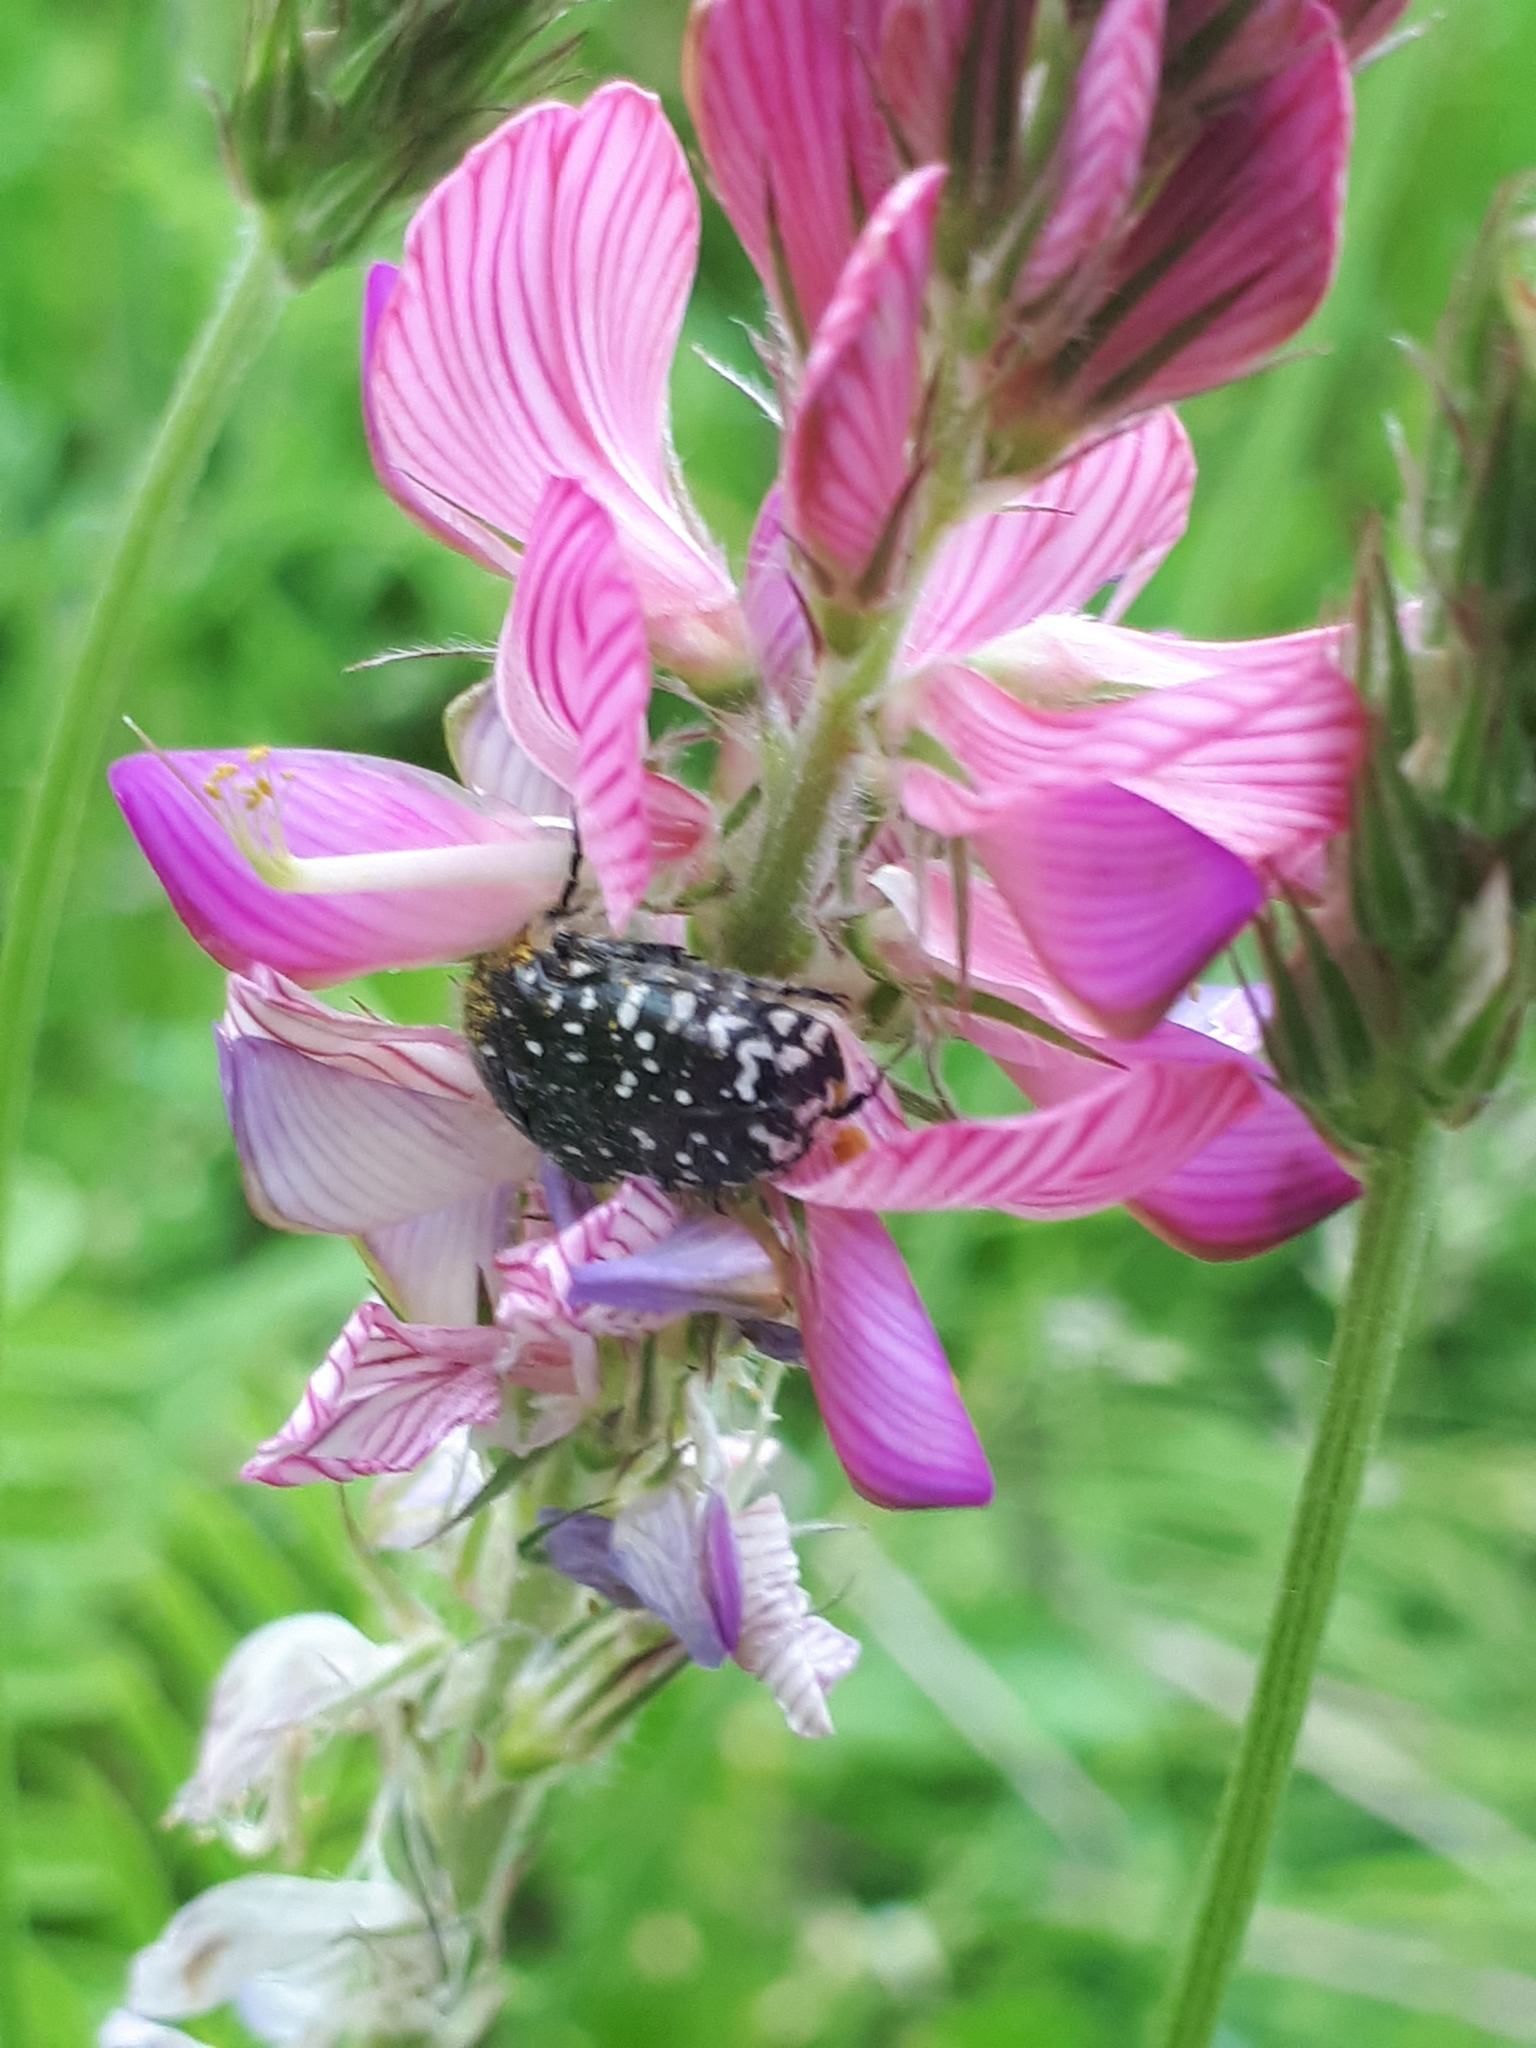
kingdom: Animalia
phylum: Arthropoda
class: Insecta
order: Coleoptera
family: Scarabaeidae
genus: Oxythyrea
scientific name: Oxythyrea funesta
